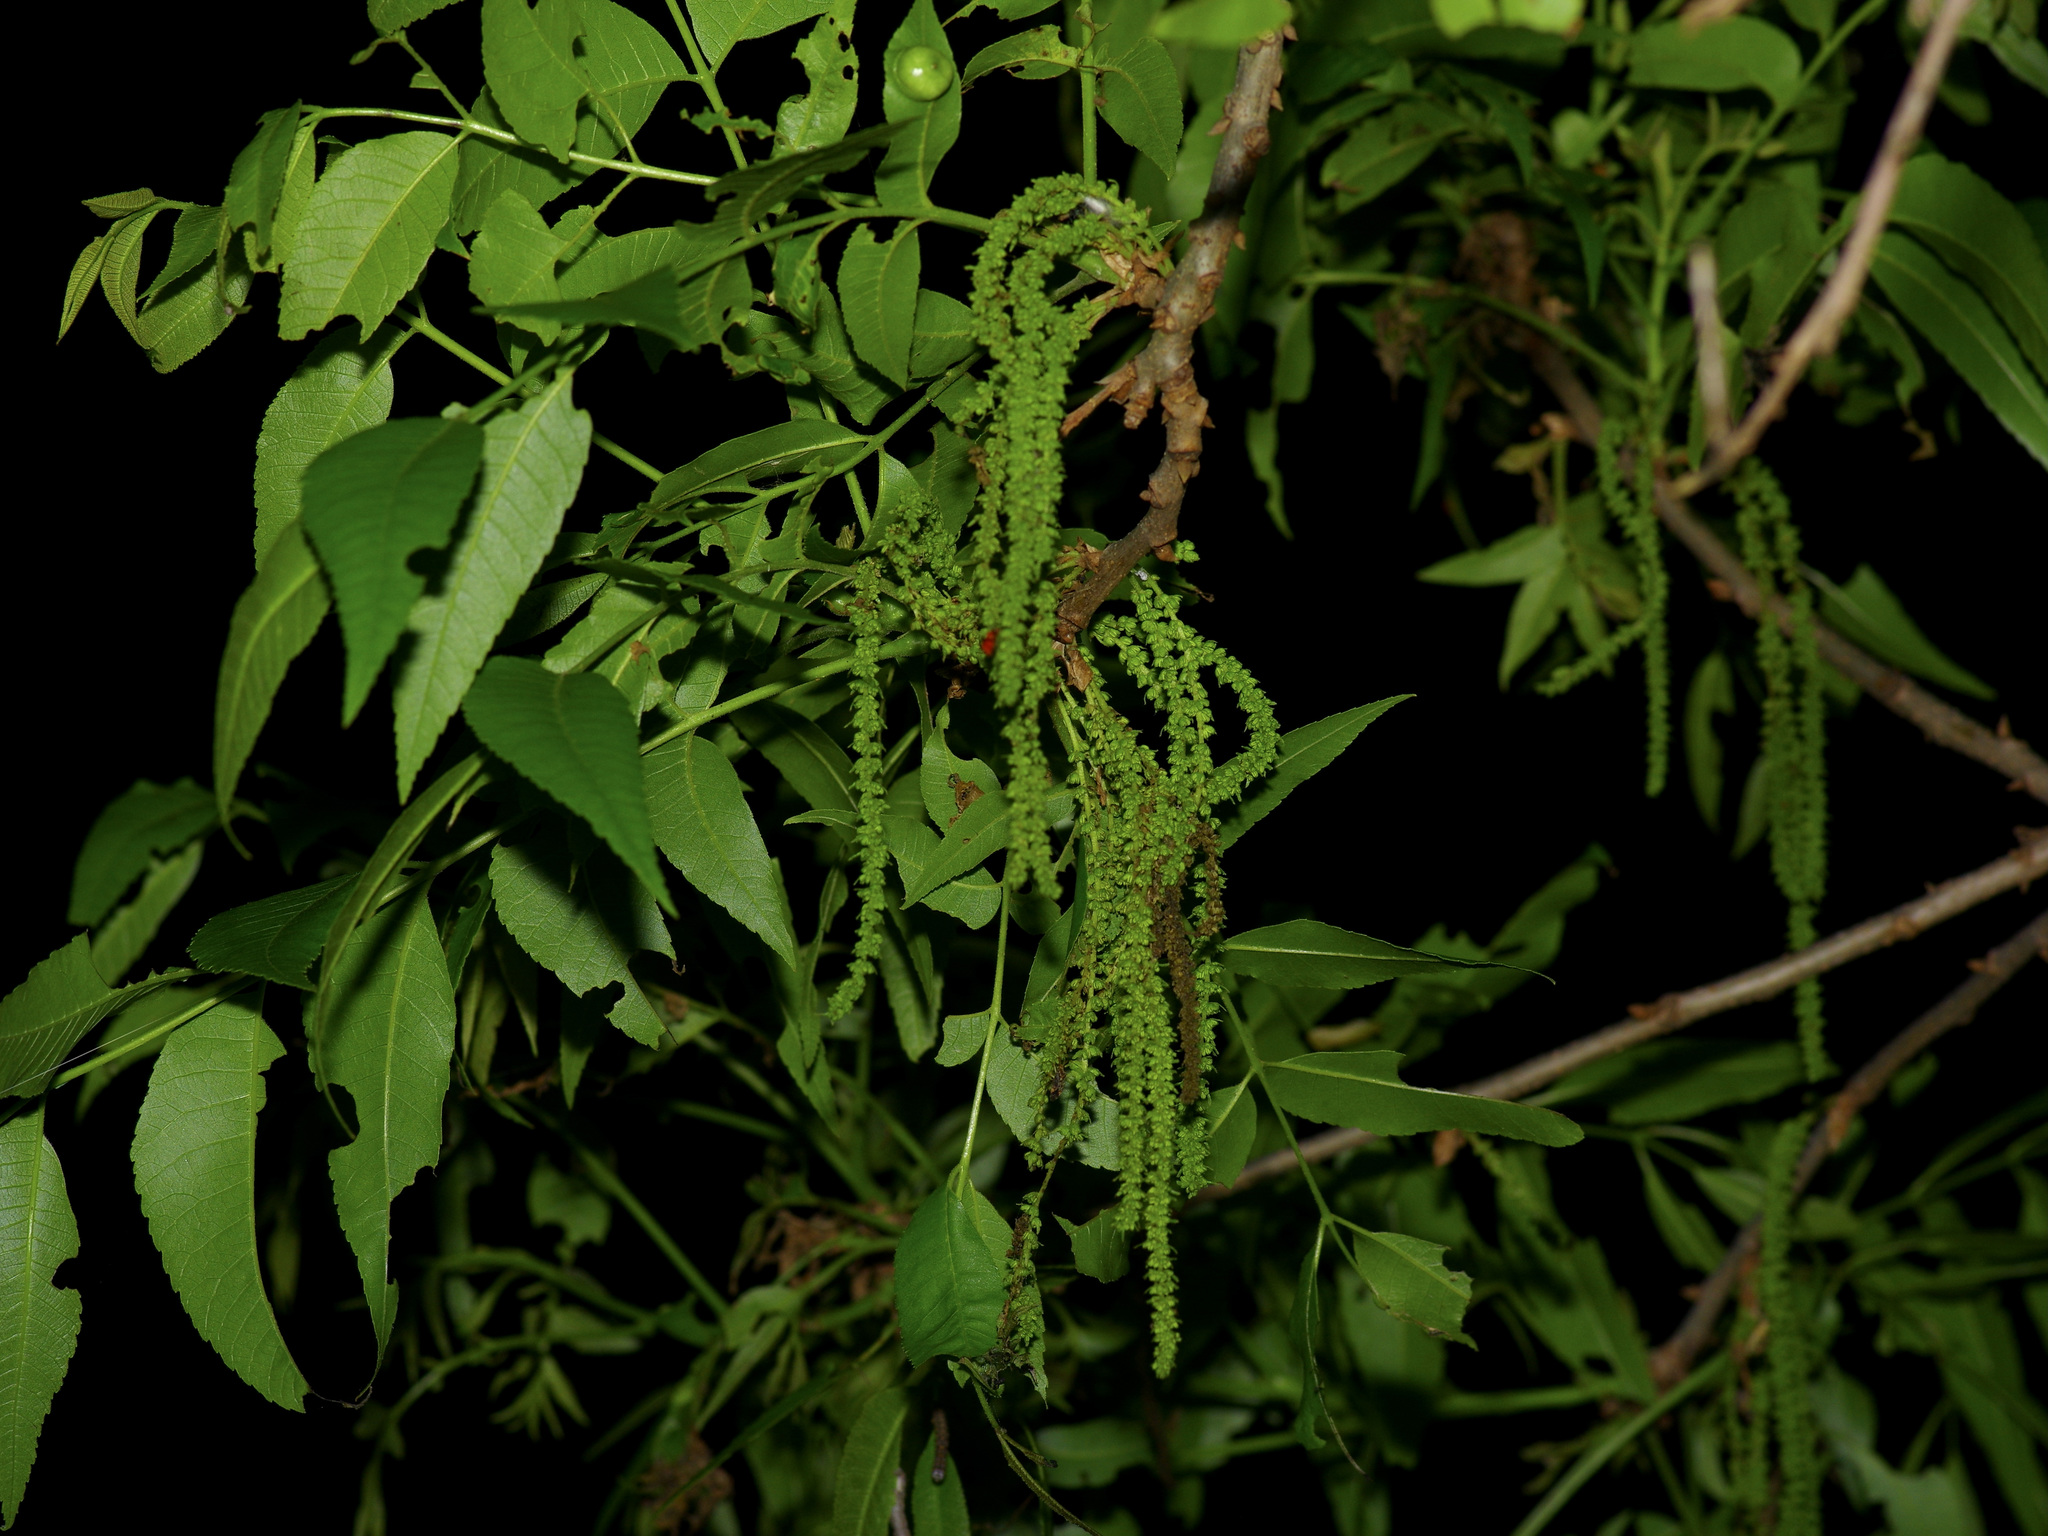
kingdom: Plantae
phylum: Tracheophyta
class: Magnoliopsida
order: Fagales
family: Juglandaceae
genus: Carya
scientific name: Carya illinoinensis
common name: Pecan
